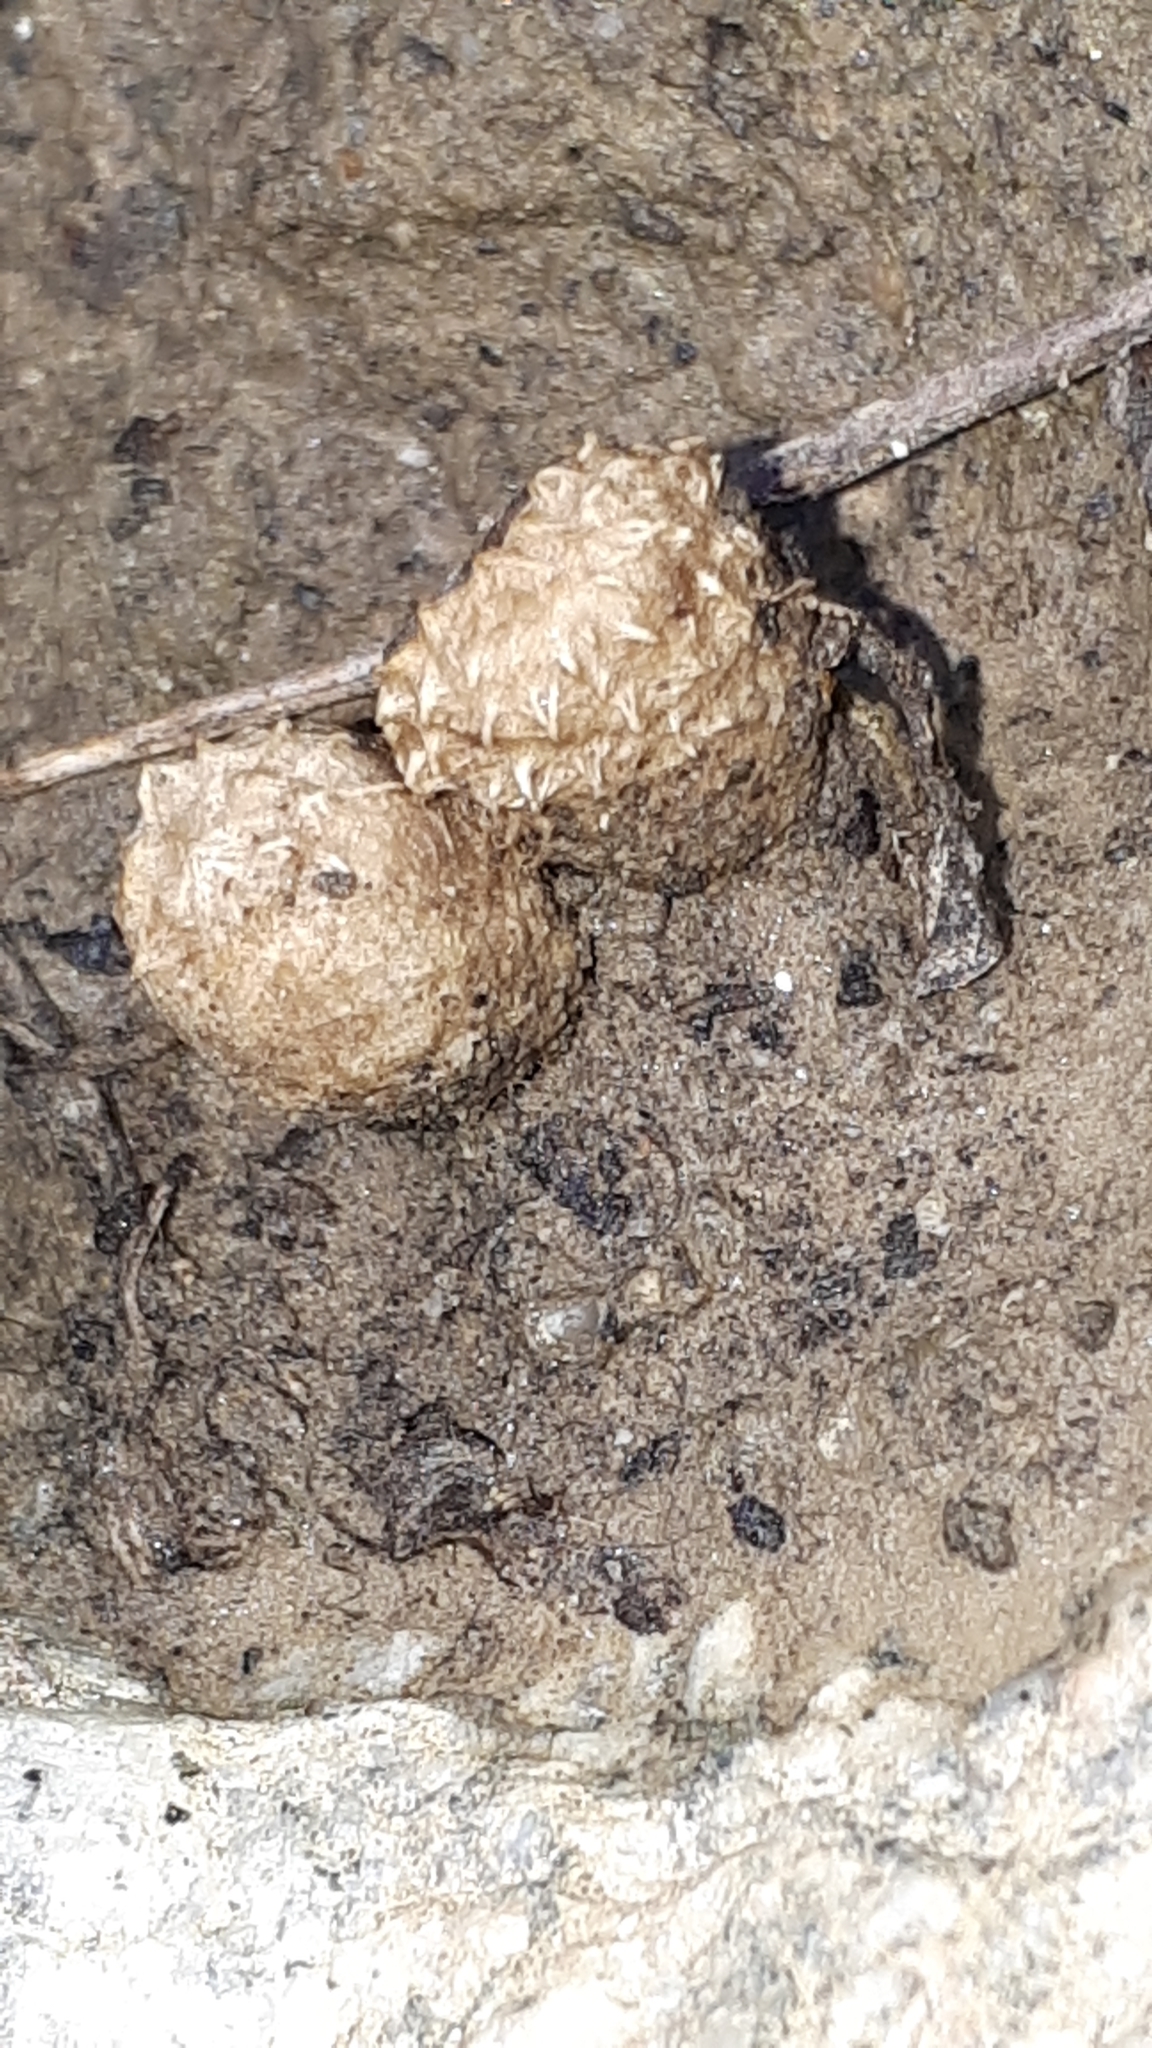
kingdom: Fungi
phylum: Basidiomycota
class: Agaricomycetes
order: Agaricales
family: Agaricaceae
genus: Cyathus
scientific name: Cyathus olla
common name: Field bird's nest
